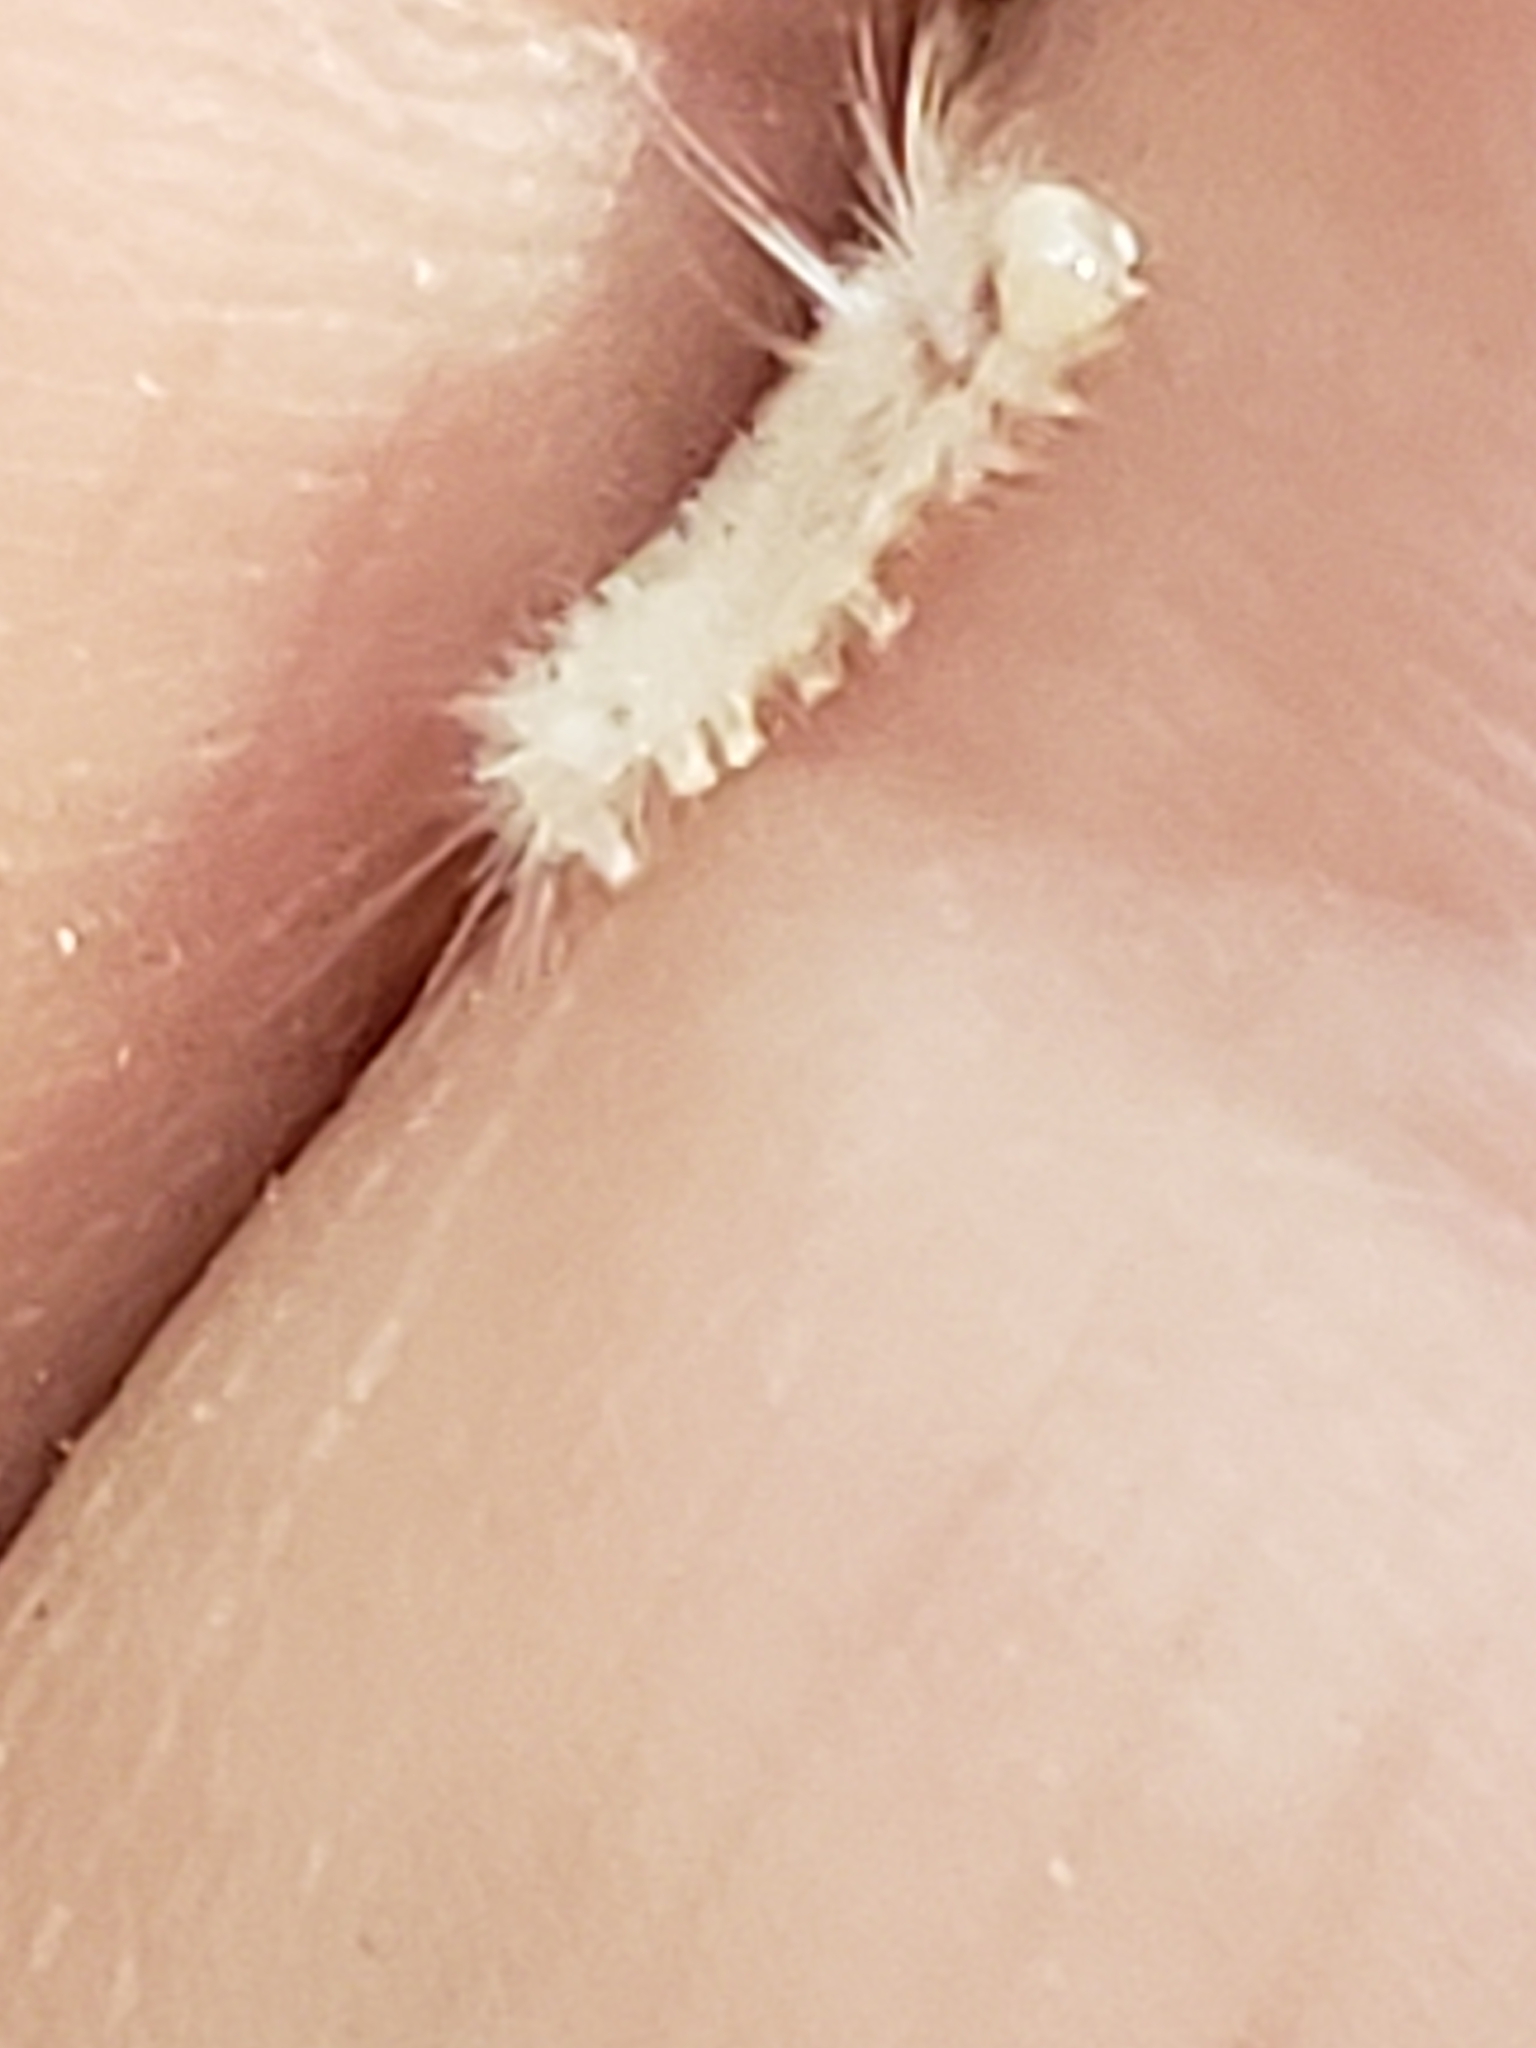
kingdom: Animalia
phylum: Arthropoda
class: Insecta
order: Lepidoptera
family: Erebidae
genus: Halysidota
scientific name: Halysidota tessellaris
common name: Banded tussock moth
